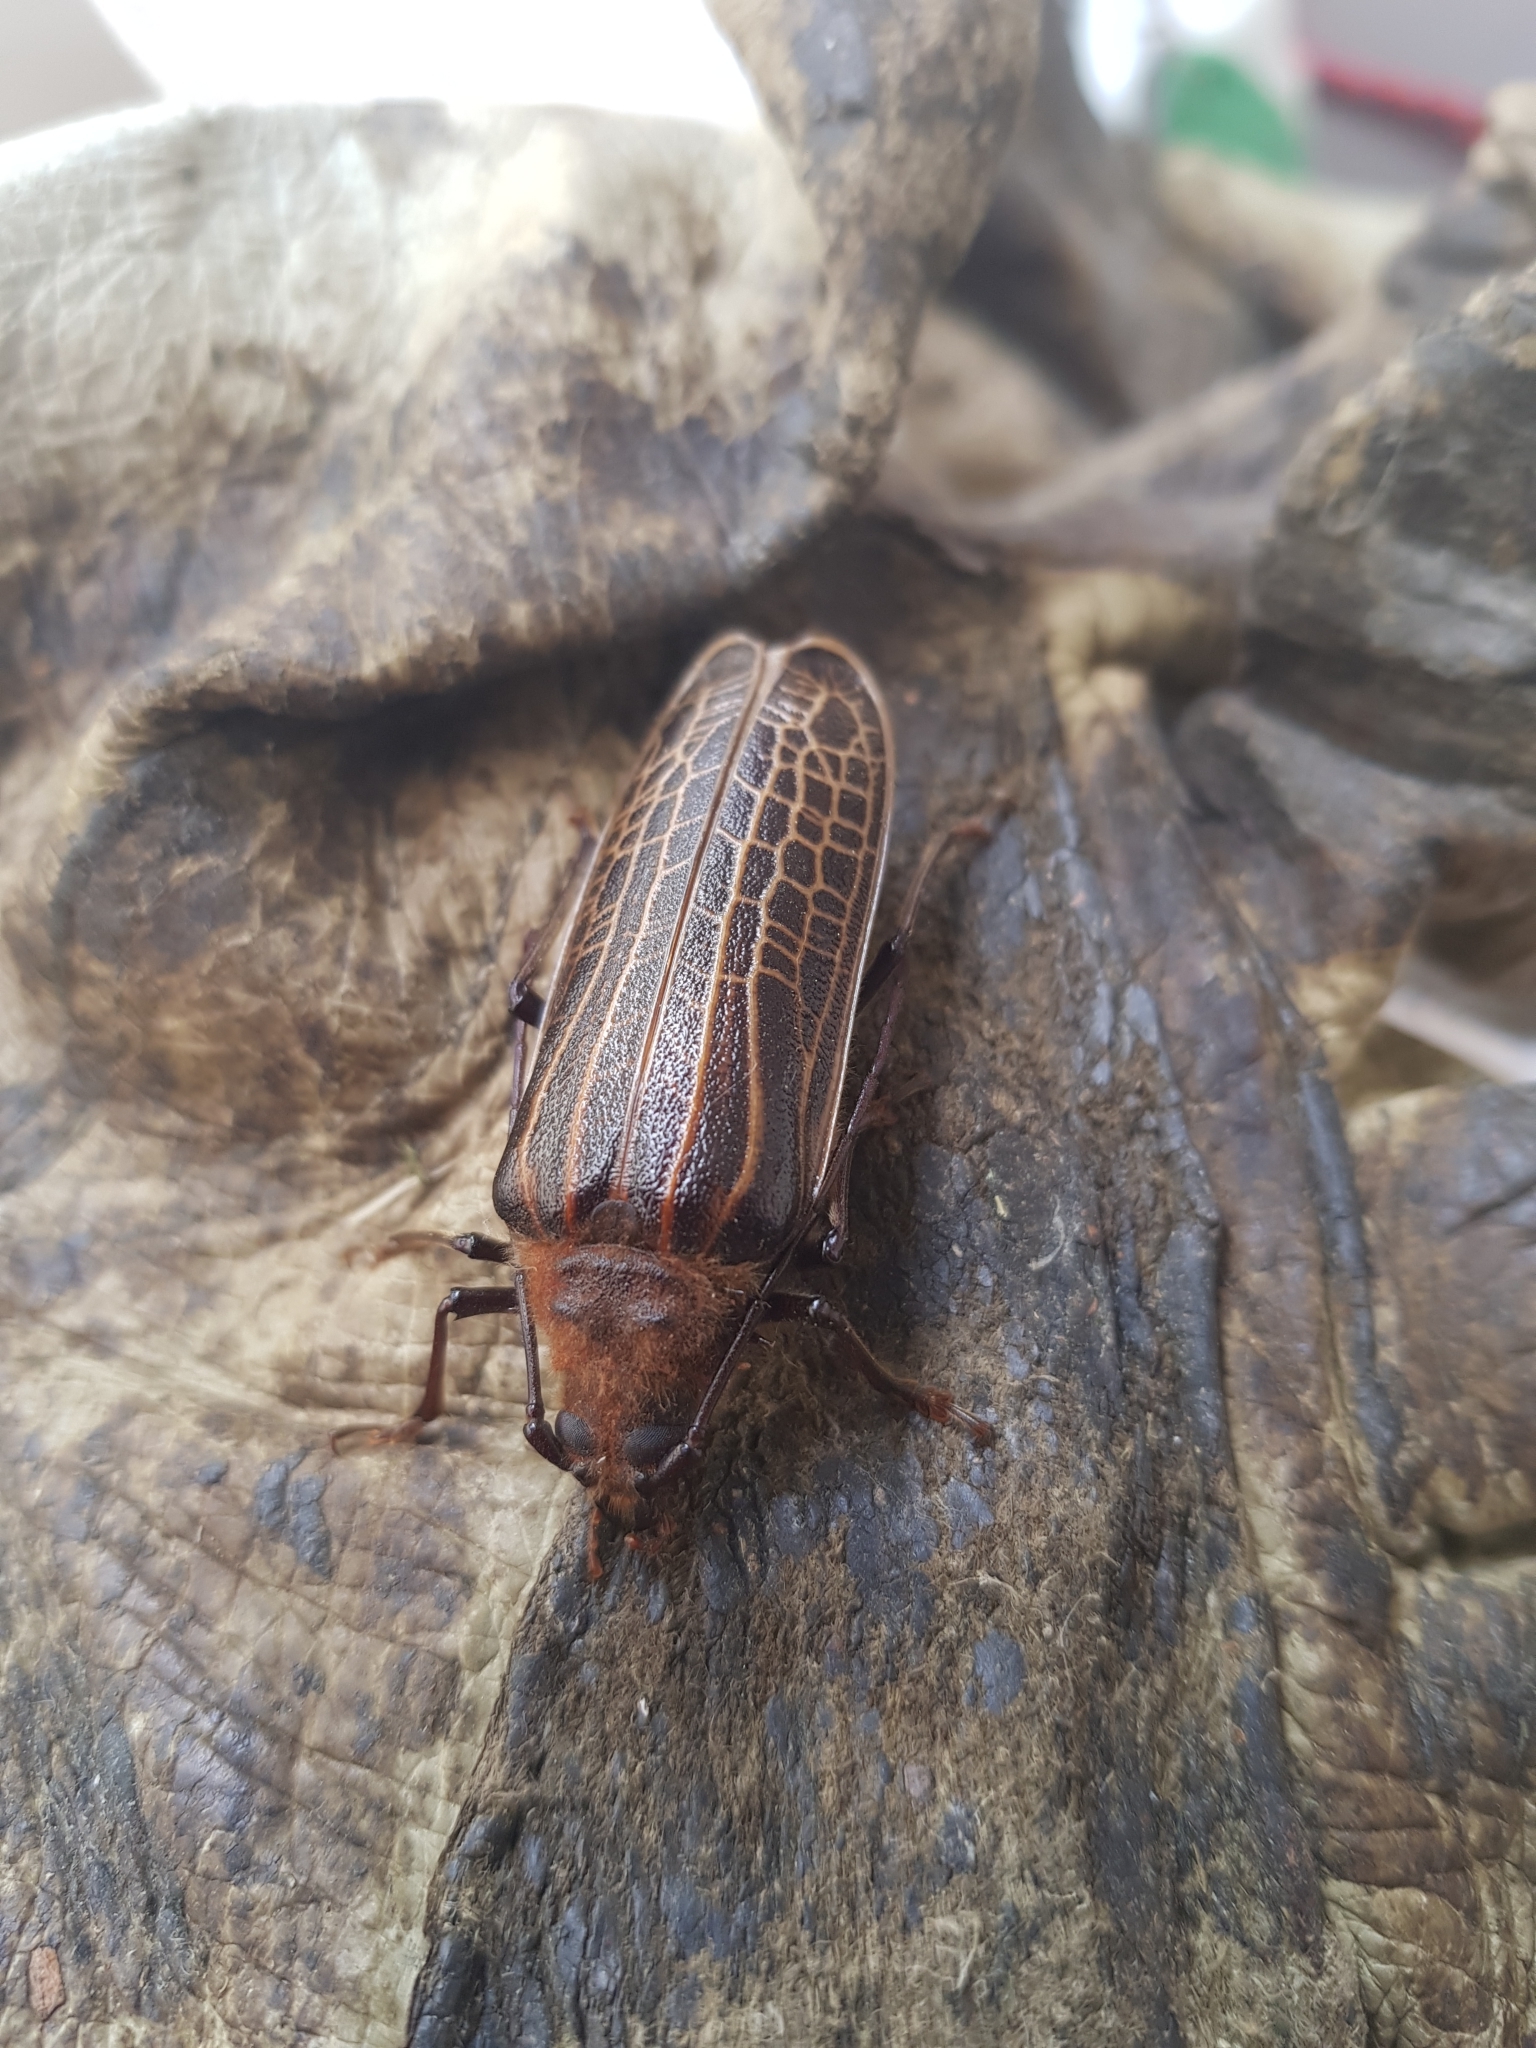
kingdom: Animalia
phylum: Arthropoda
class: Insecta
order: Coleoptera
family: Cerambycidae
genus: Prionoplus
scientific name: Prionoplus reticularis
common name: Huhu beetle
